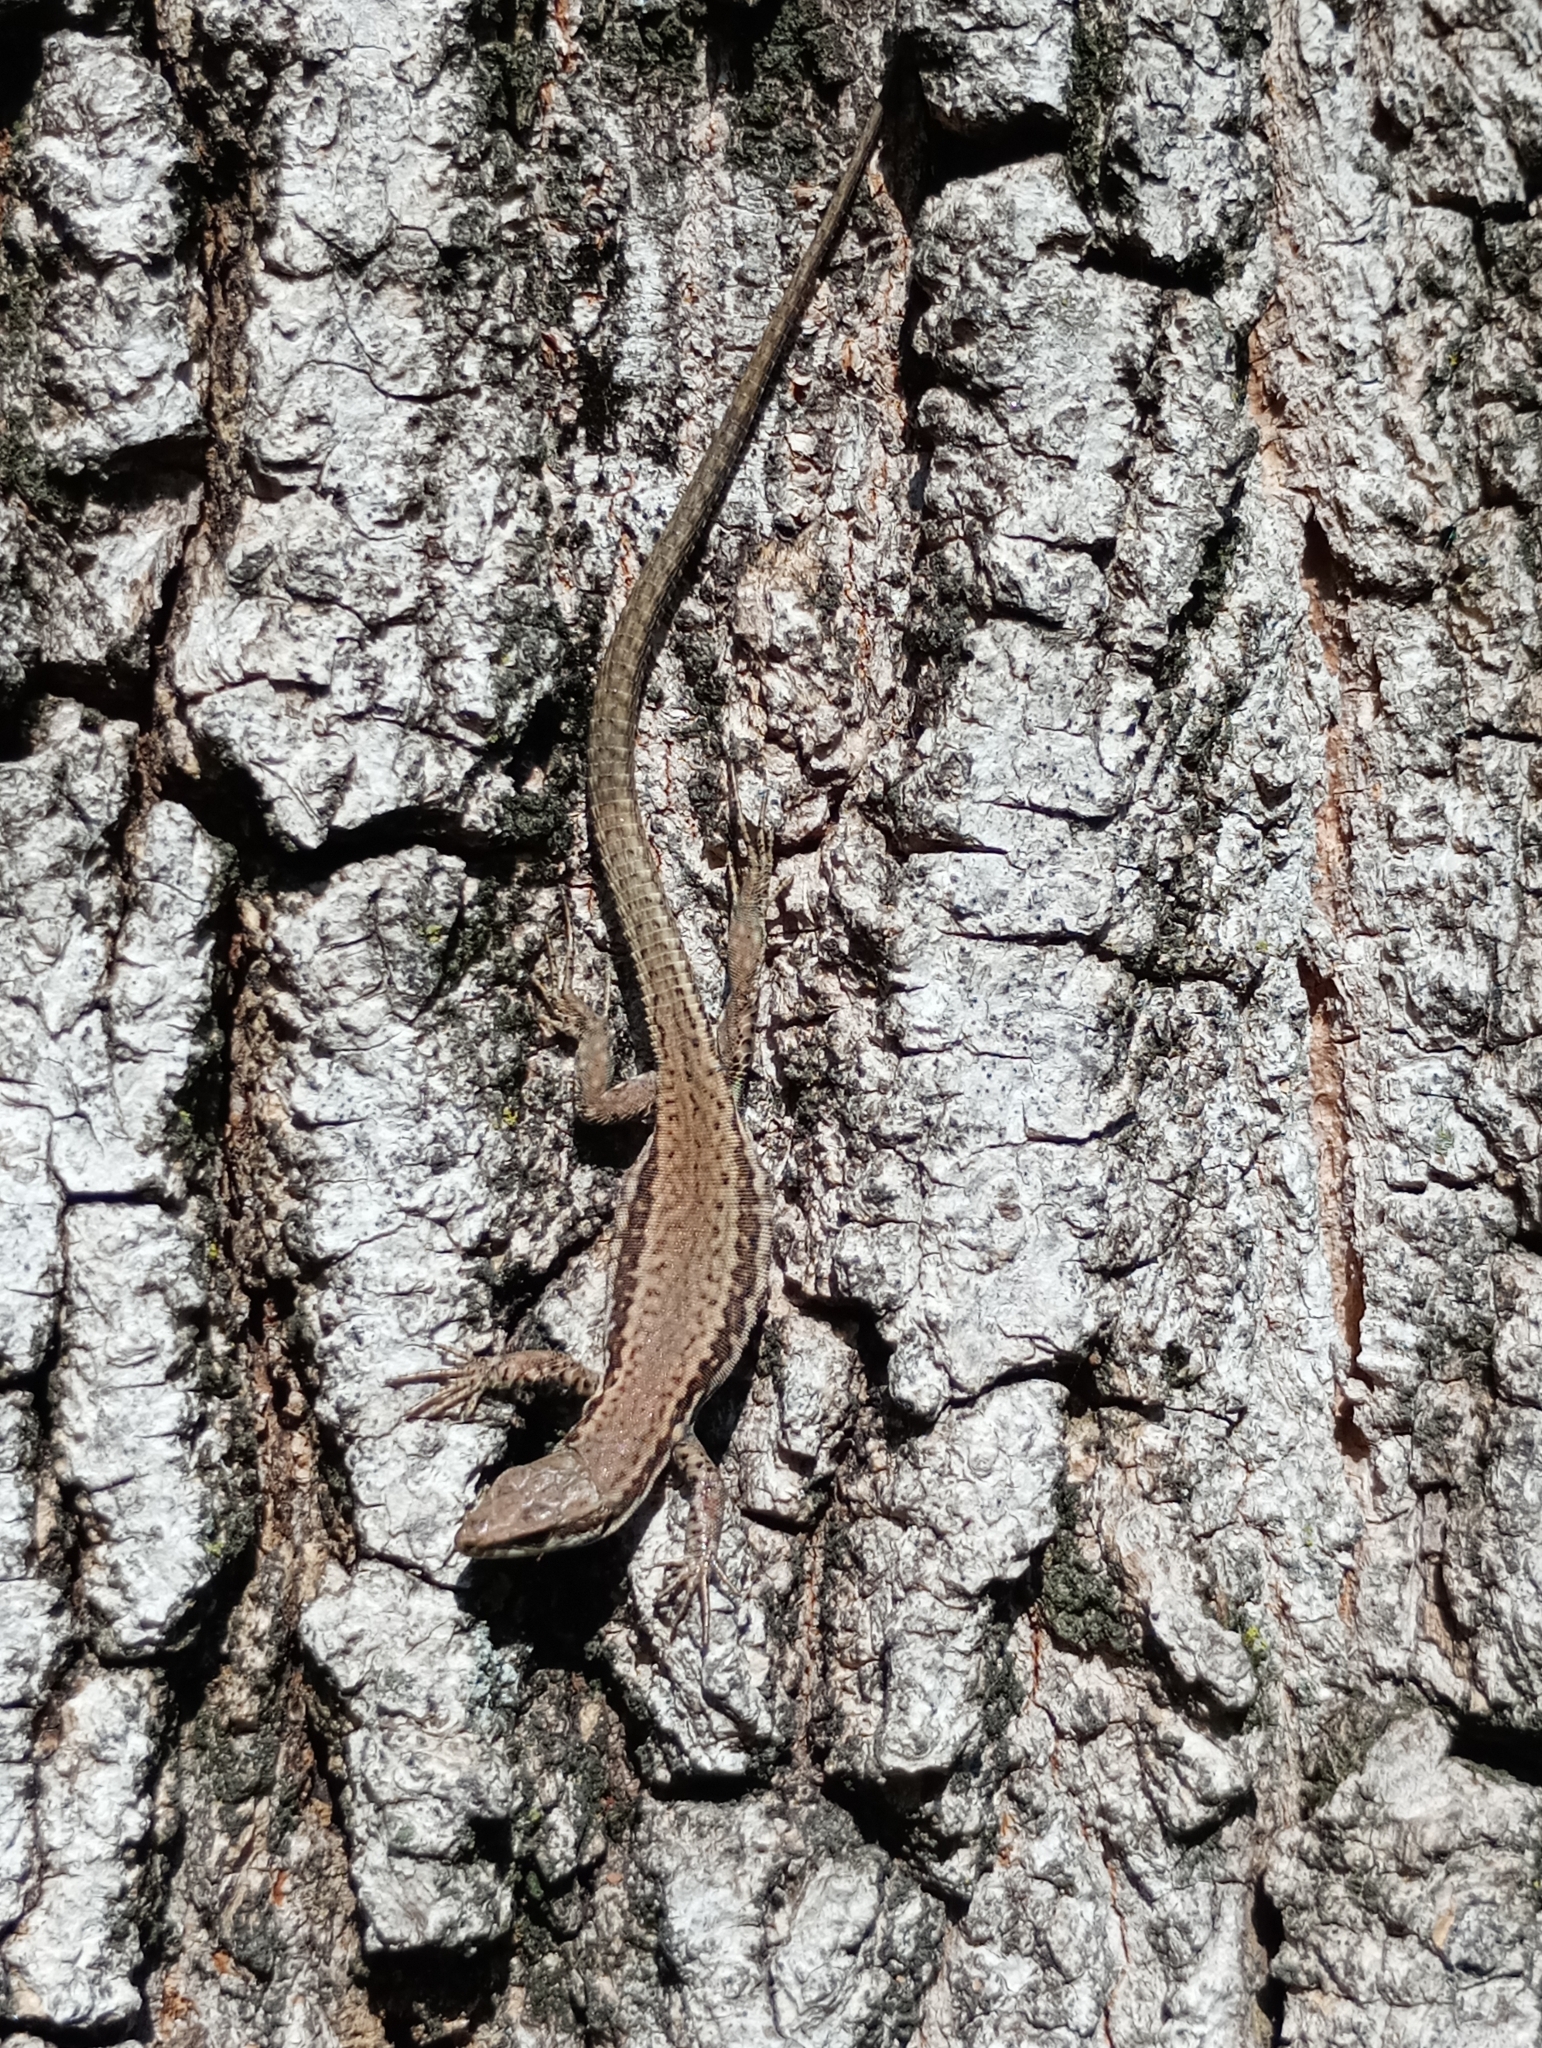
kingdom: Animalia
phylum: Chordata
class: Squamata
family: Lacertidae
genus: Podarcis
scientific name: Podarcis muralis
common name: Common wall lizard
